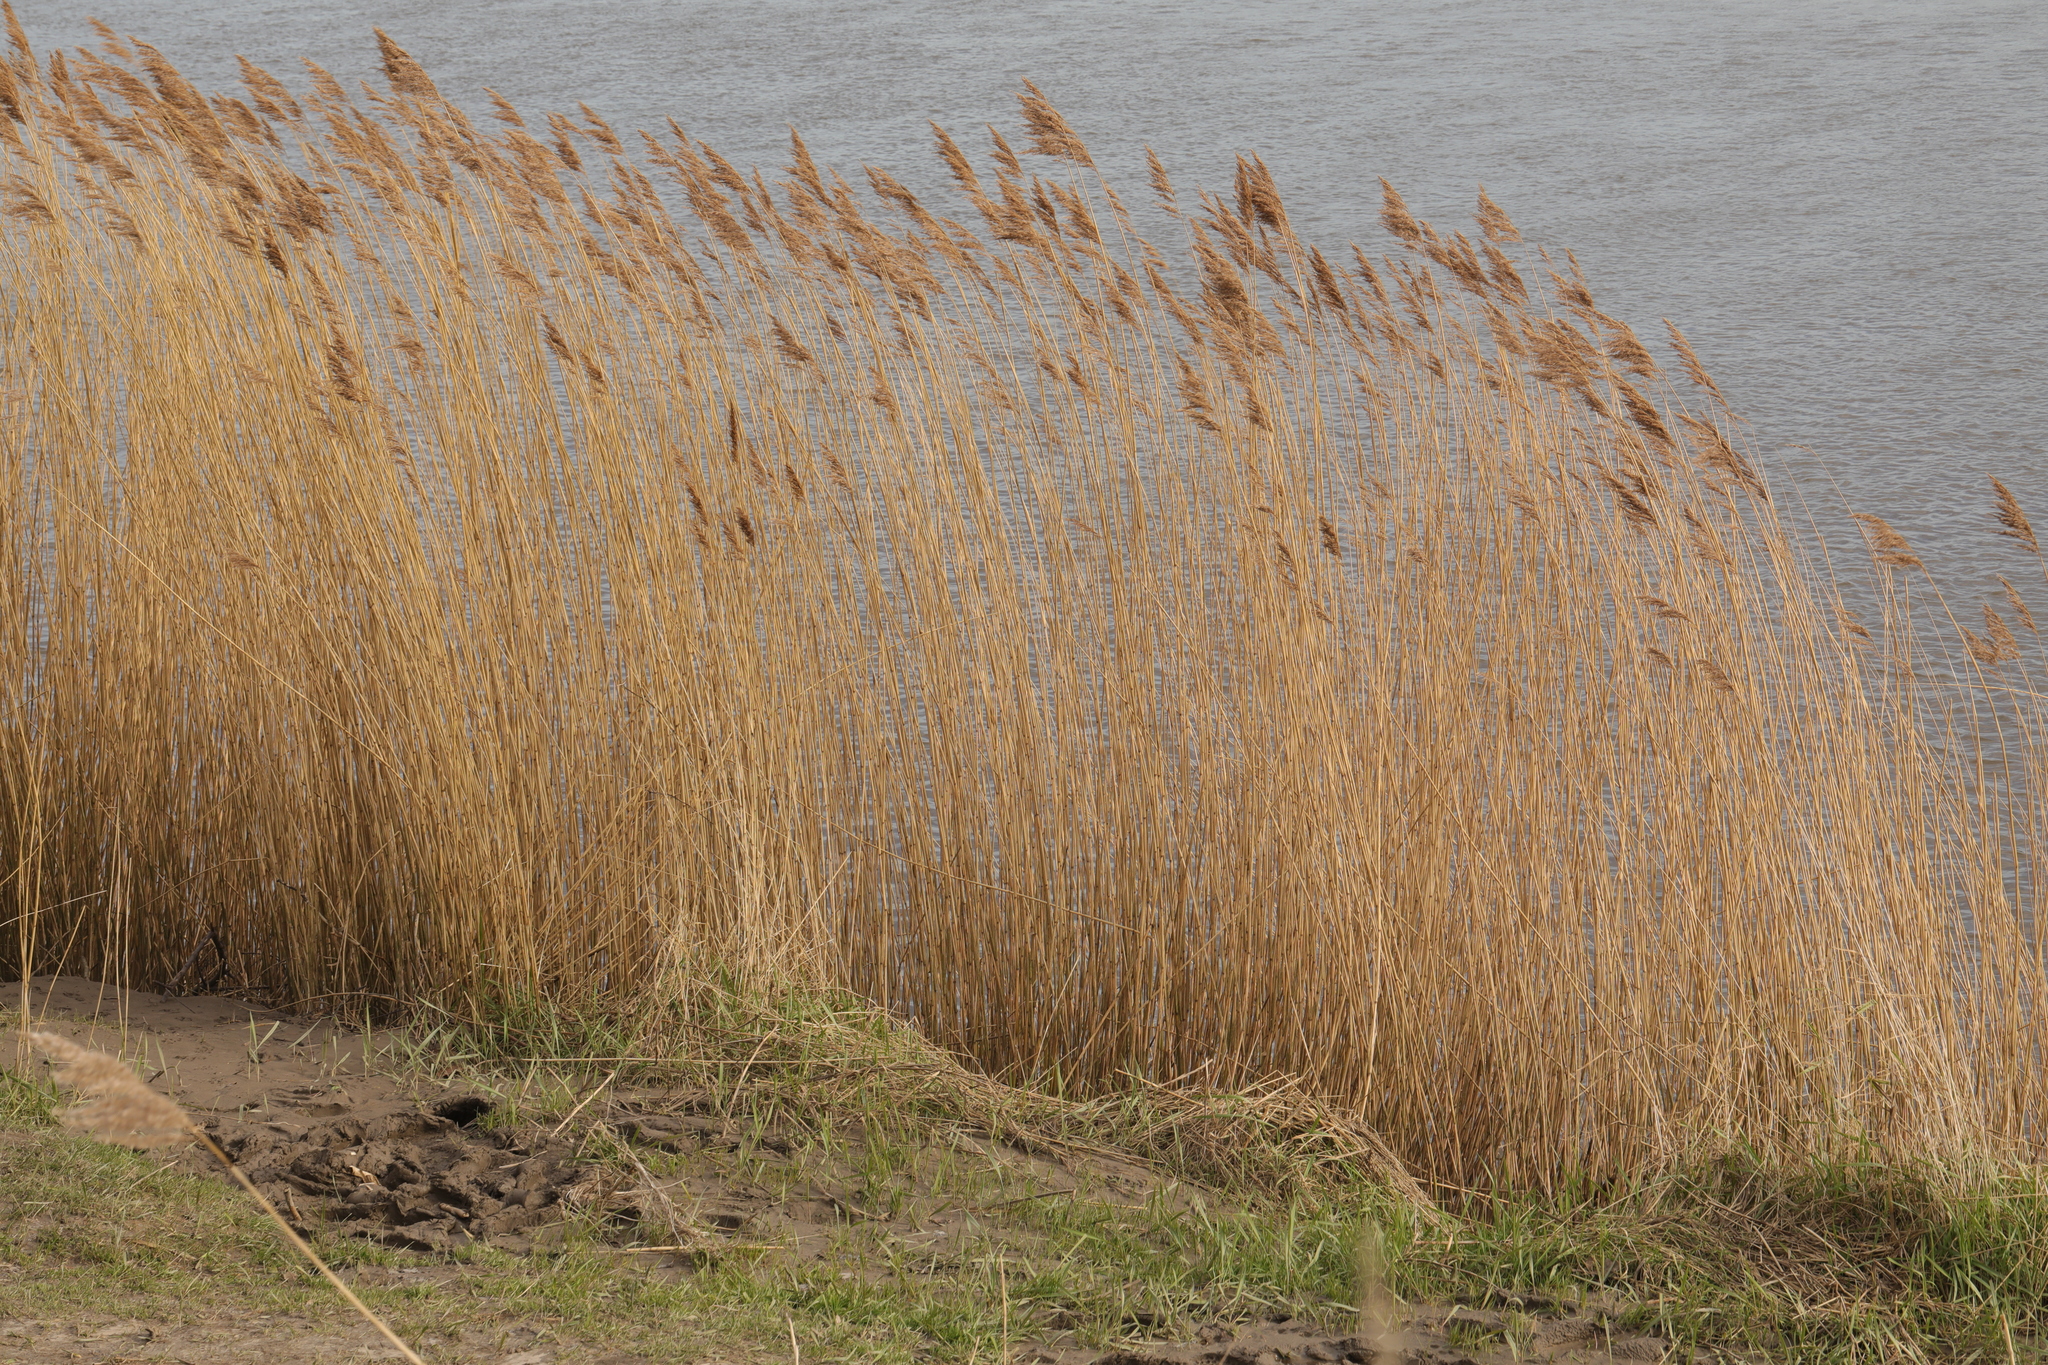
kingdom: Plantae
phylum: Tracheophyta
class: Liliopsida
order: Poales
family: Poaceae
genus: Phragmites
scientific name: Phragmites australis
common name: Common reed
